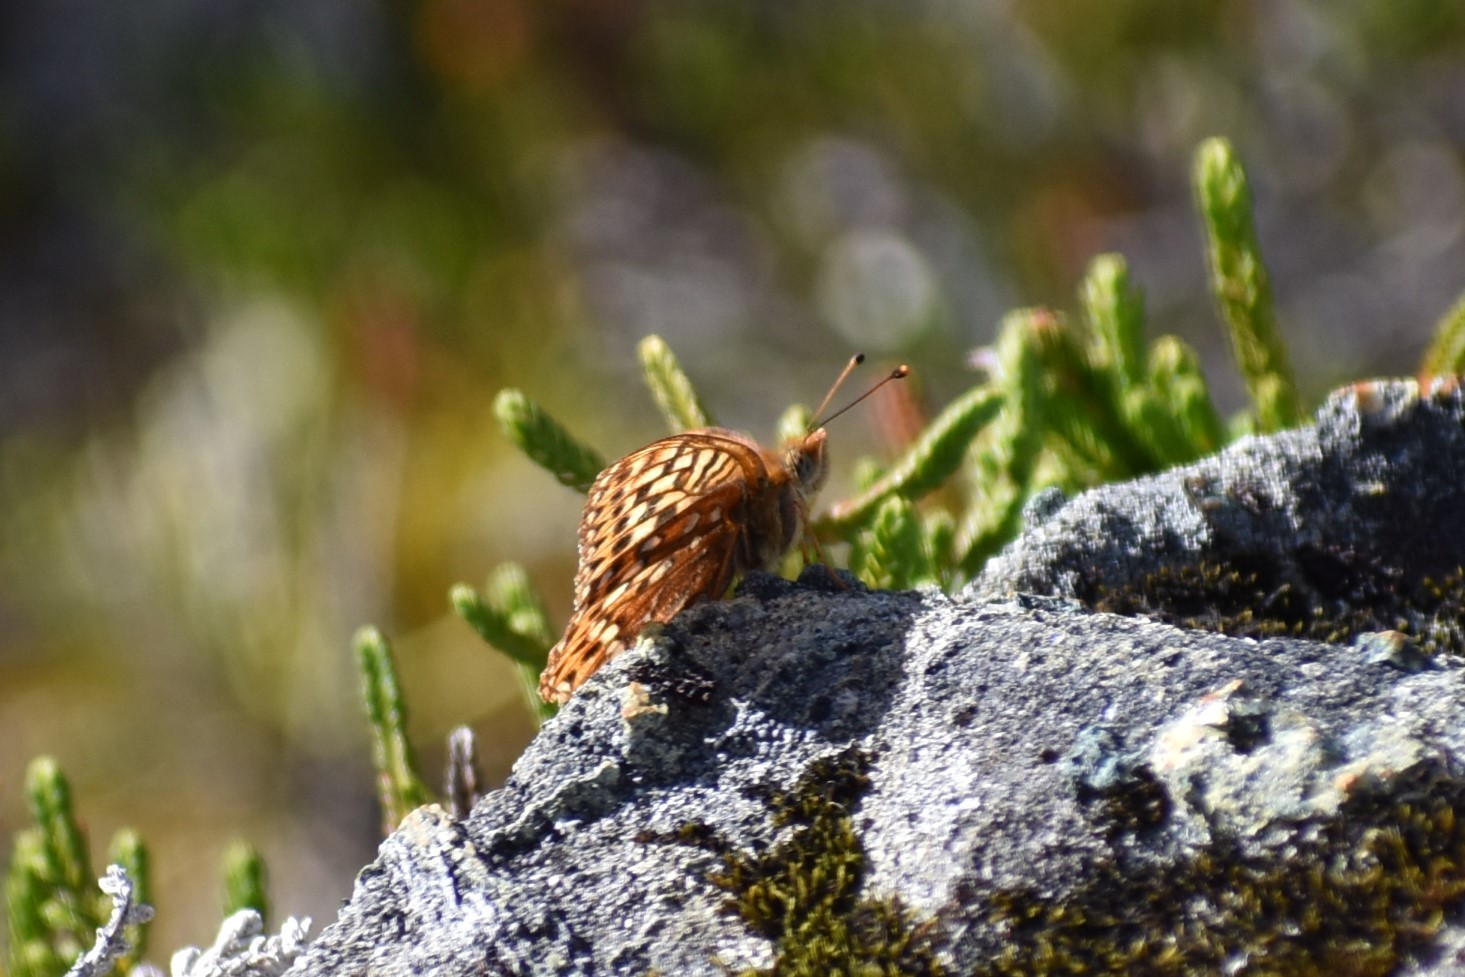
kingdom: Animalia
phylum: Arthropoda
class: Insecta
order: Lepidoptera
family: Nymphalidae
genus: Speyeria
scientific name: Speyeria hydaspe
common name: Hydaspe fritillary
